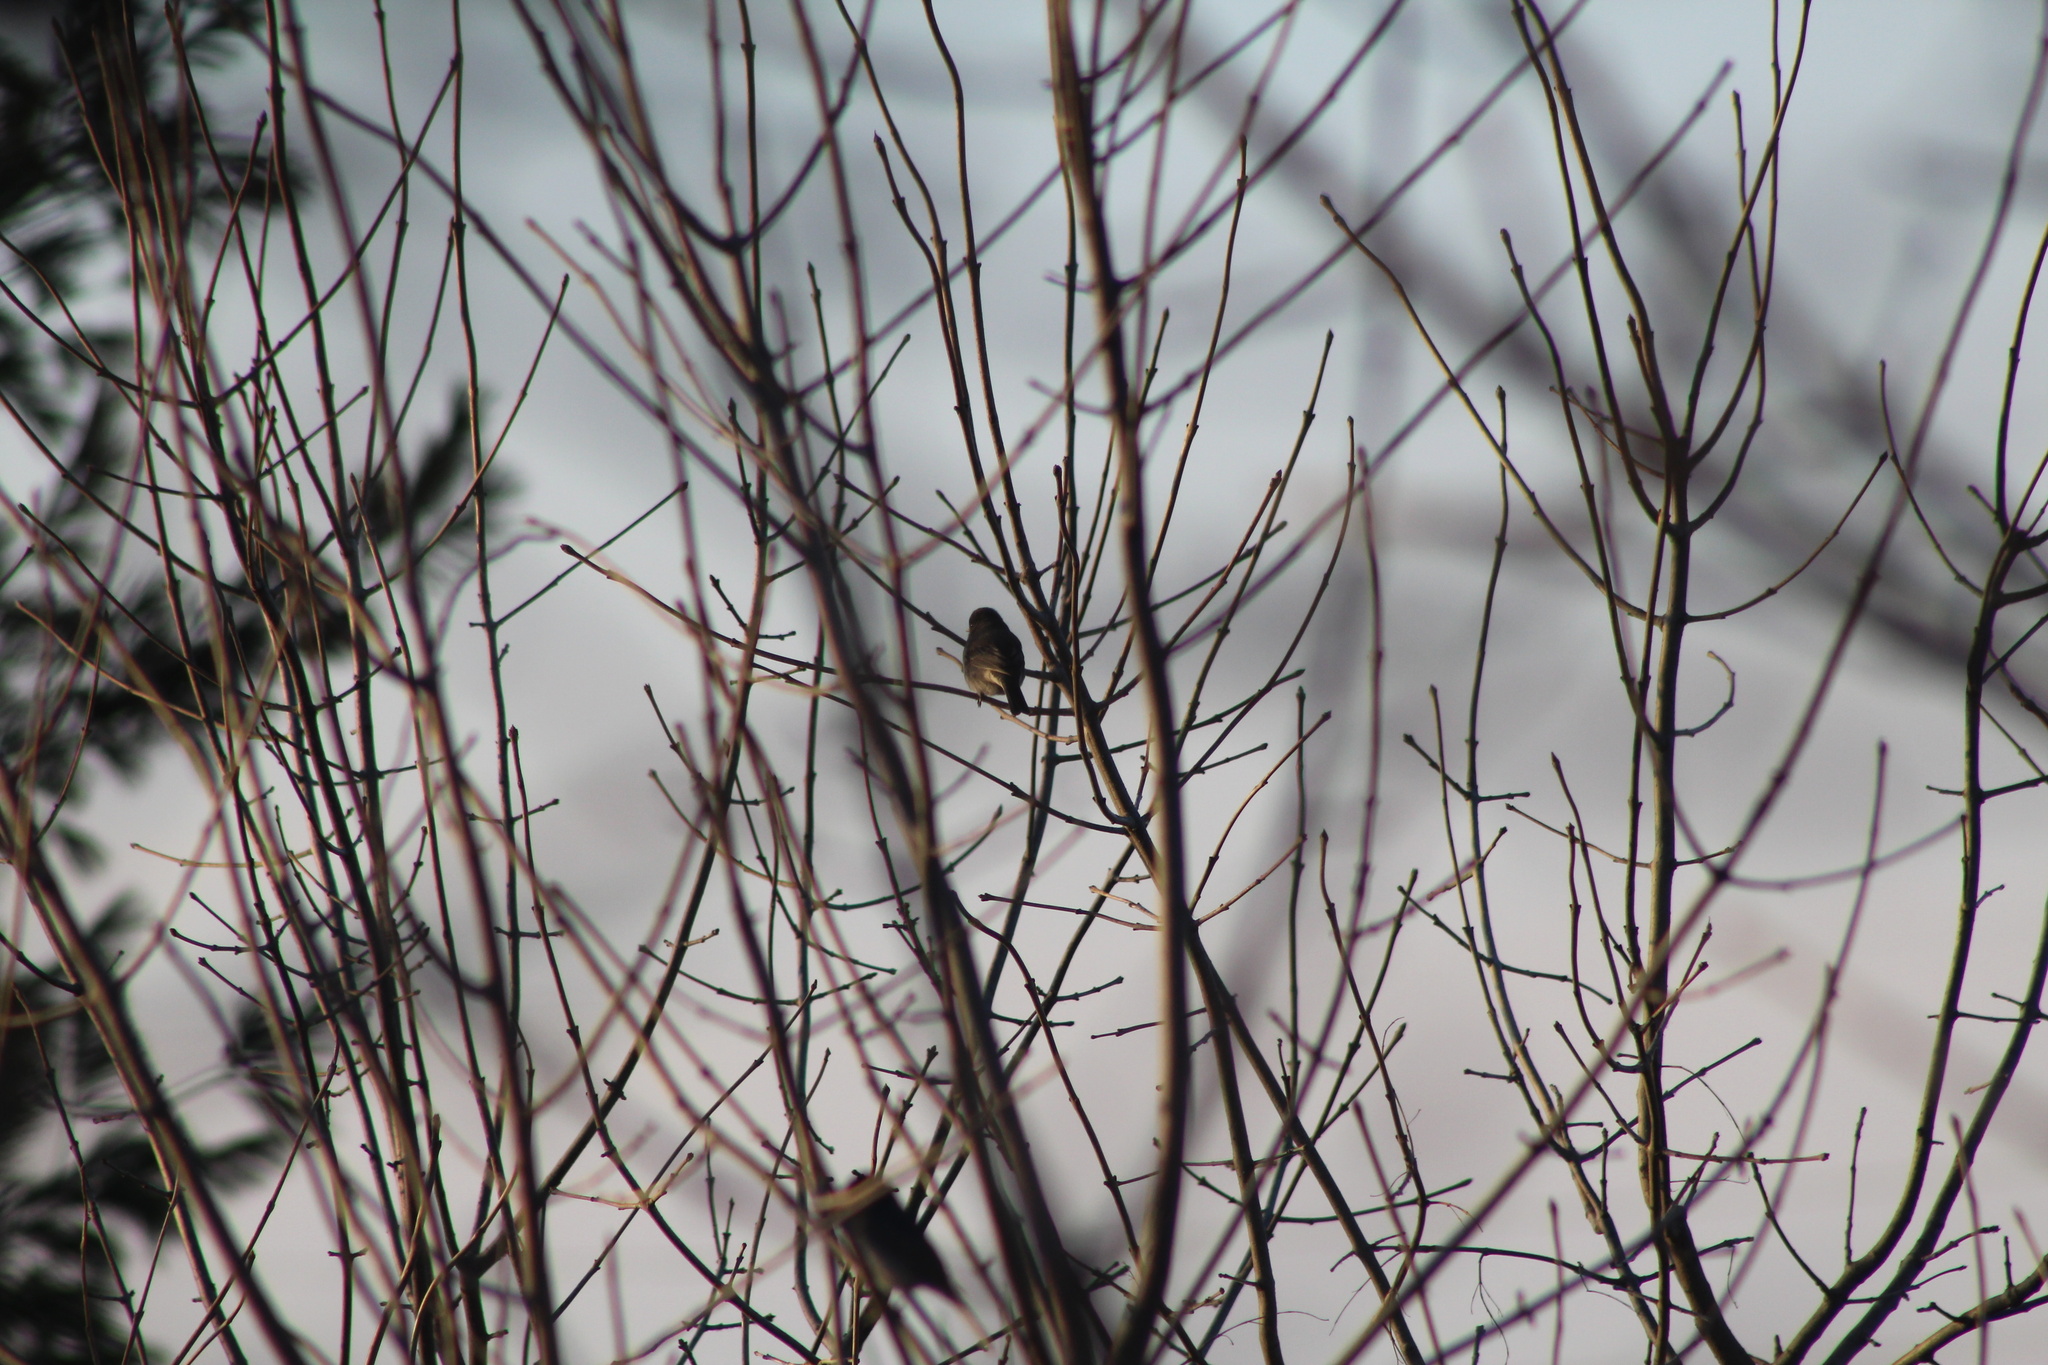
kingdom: Animalia
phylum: Chordata
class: Aves
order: Passeriformes
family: Passerellidae
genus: Junco
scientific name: Junco hyemalis
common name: Dark-eyed junco
